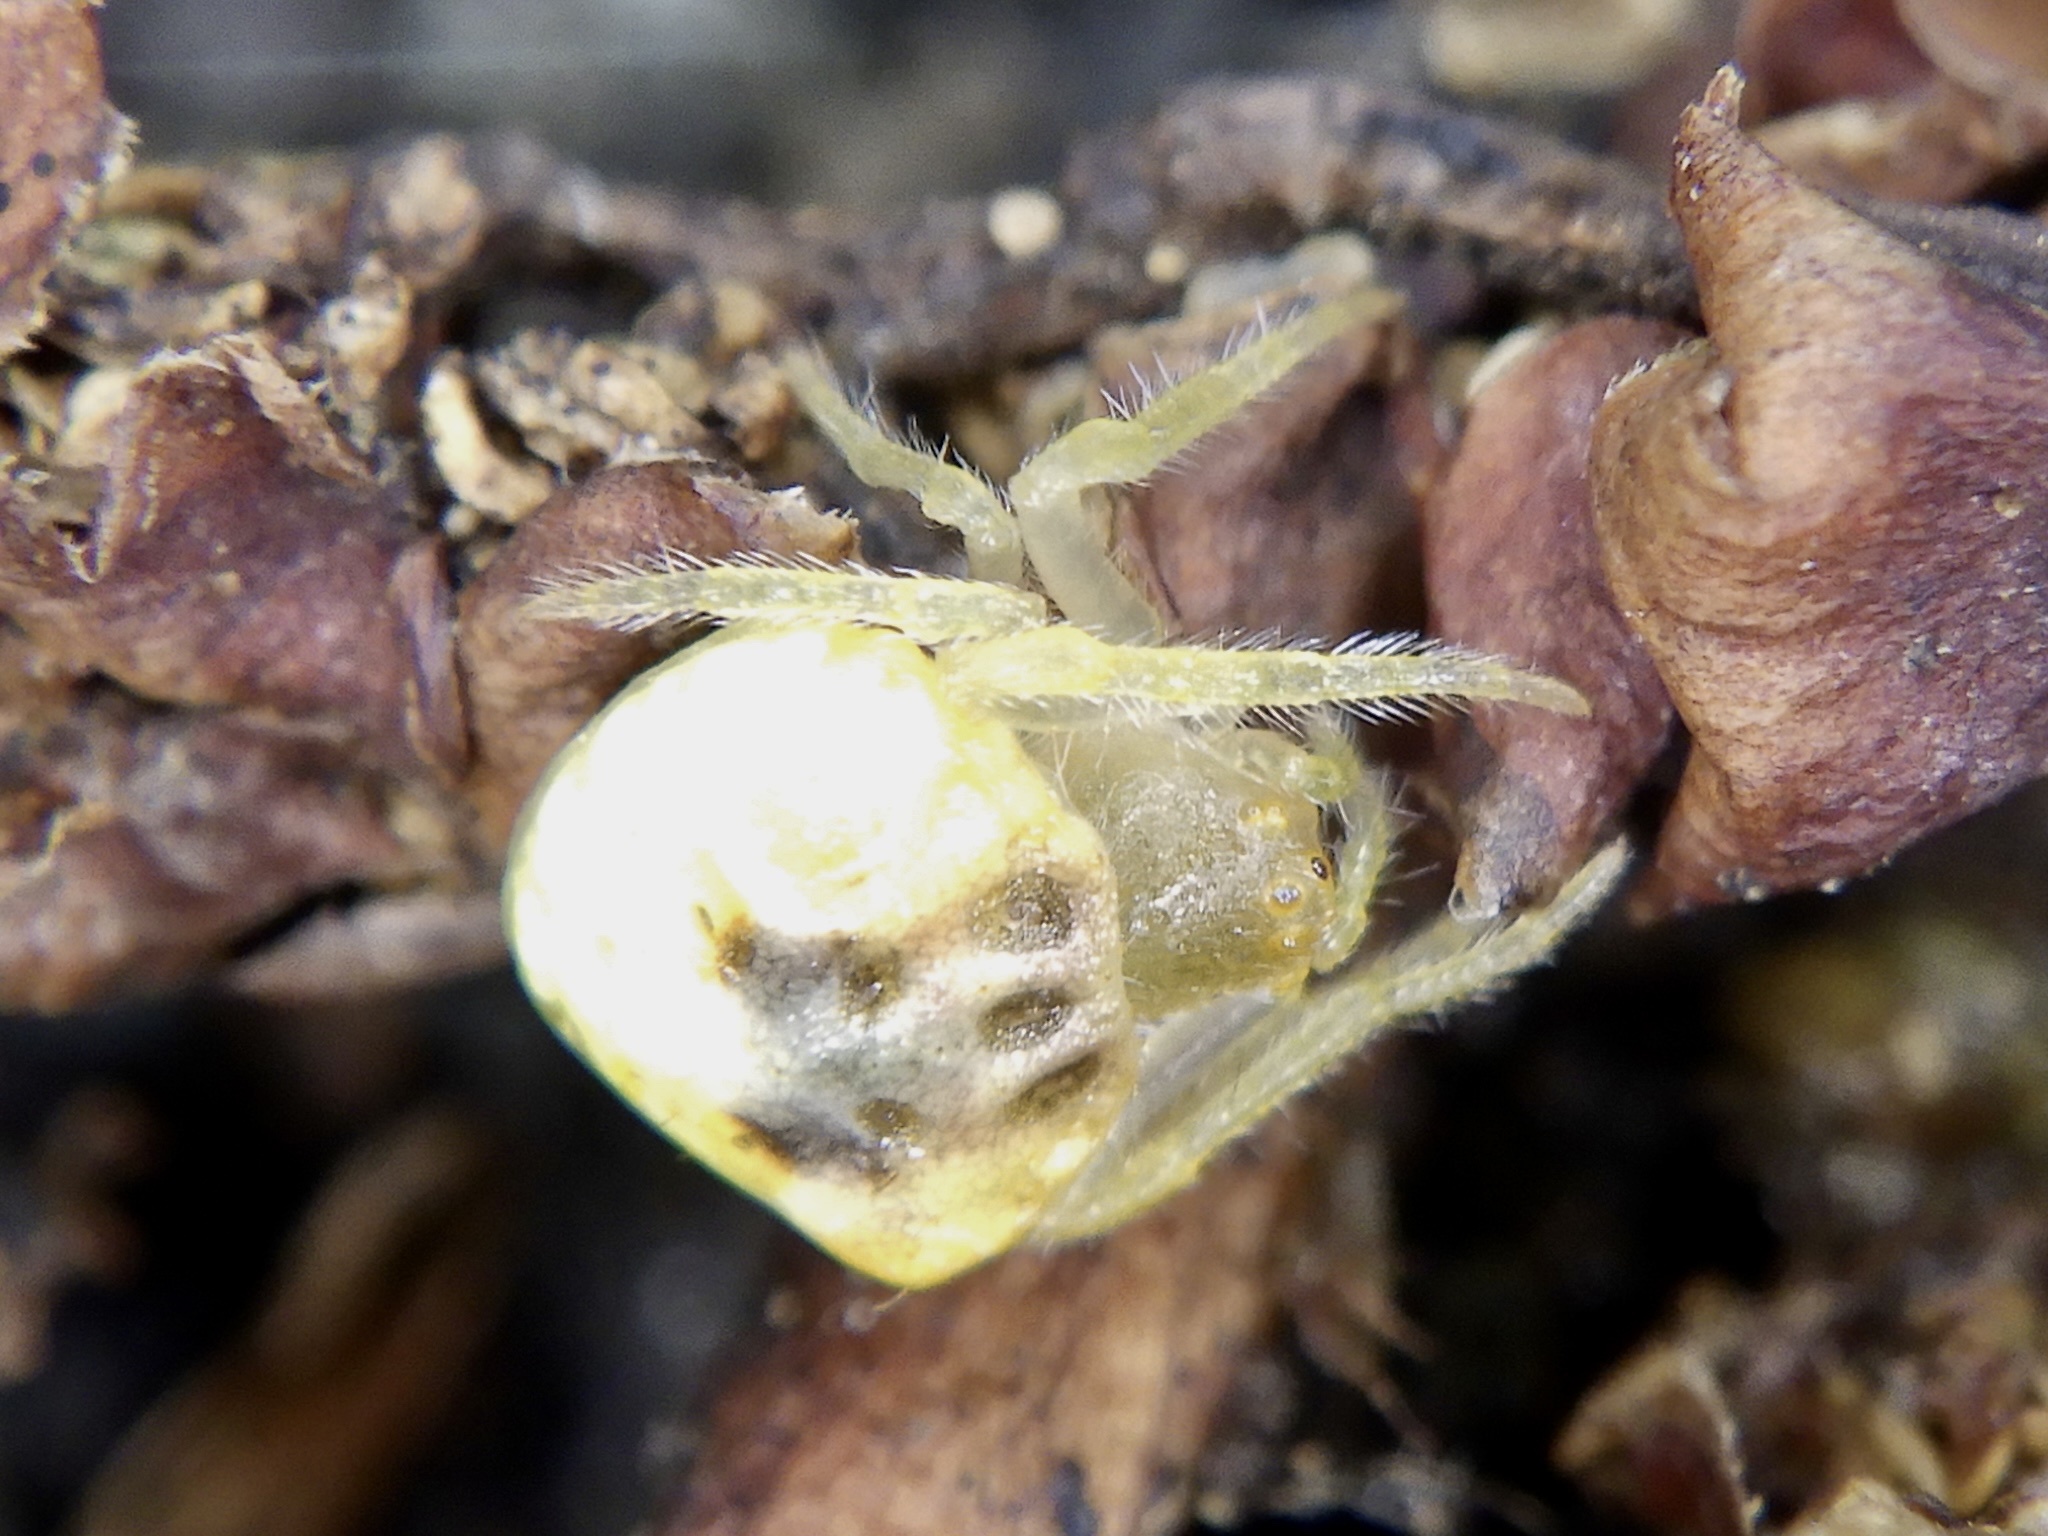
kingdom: Animalia
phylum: Arthropoda
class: Arachnida
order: Araneae
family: Araneidae
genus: Cyrtarachne
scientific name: Cyrtarachne akirai
